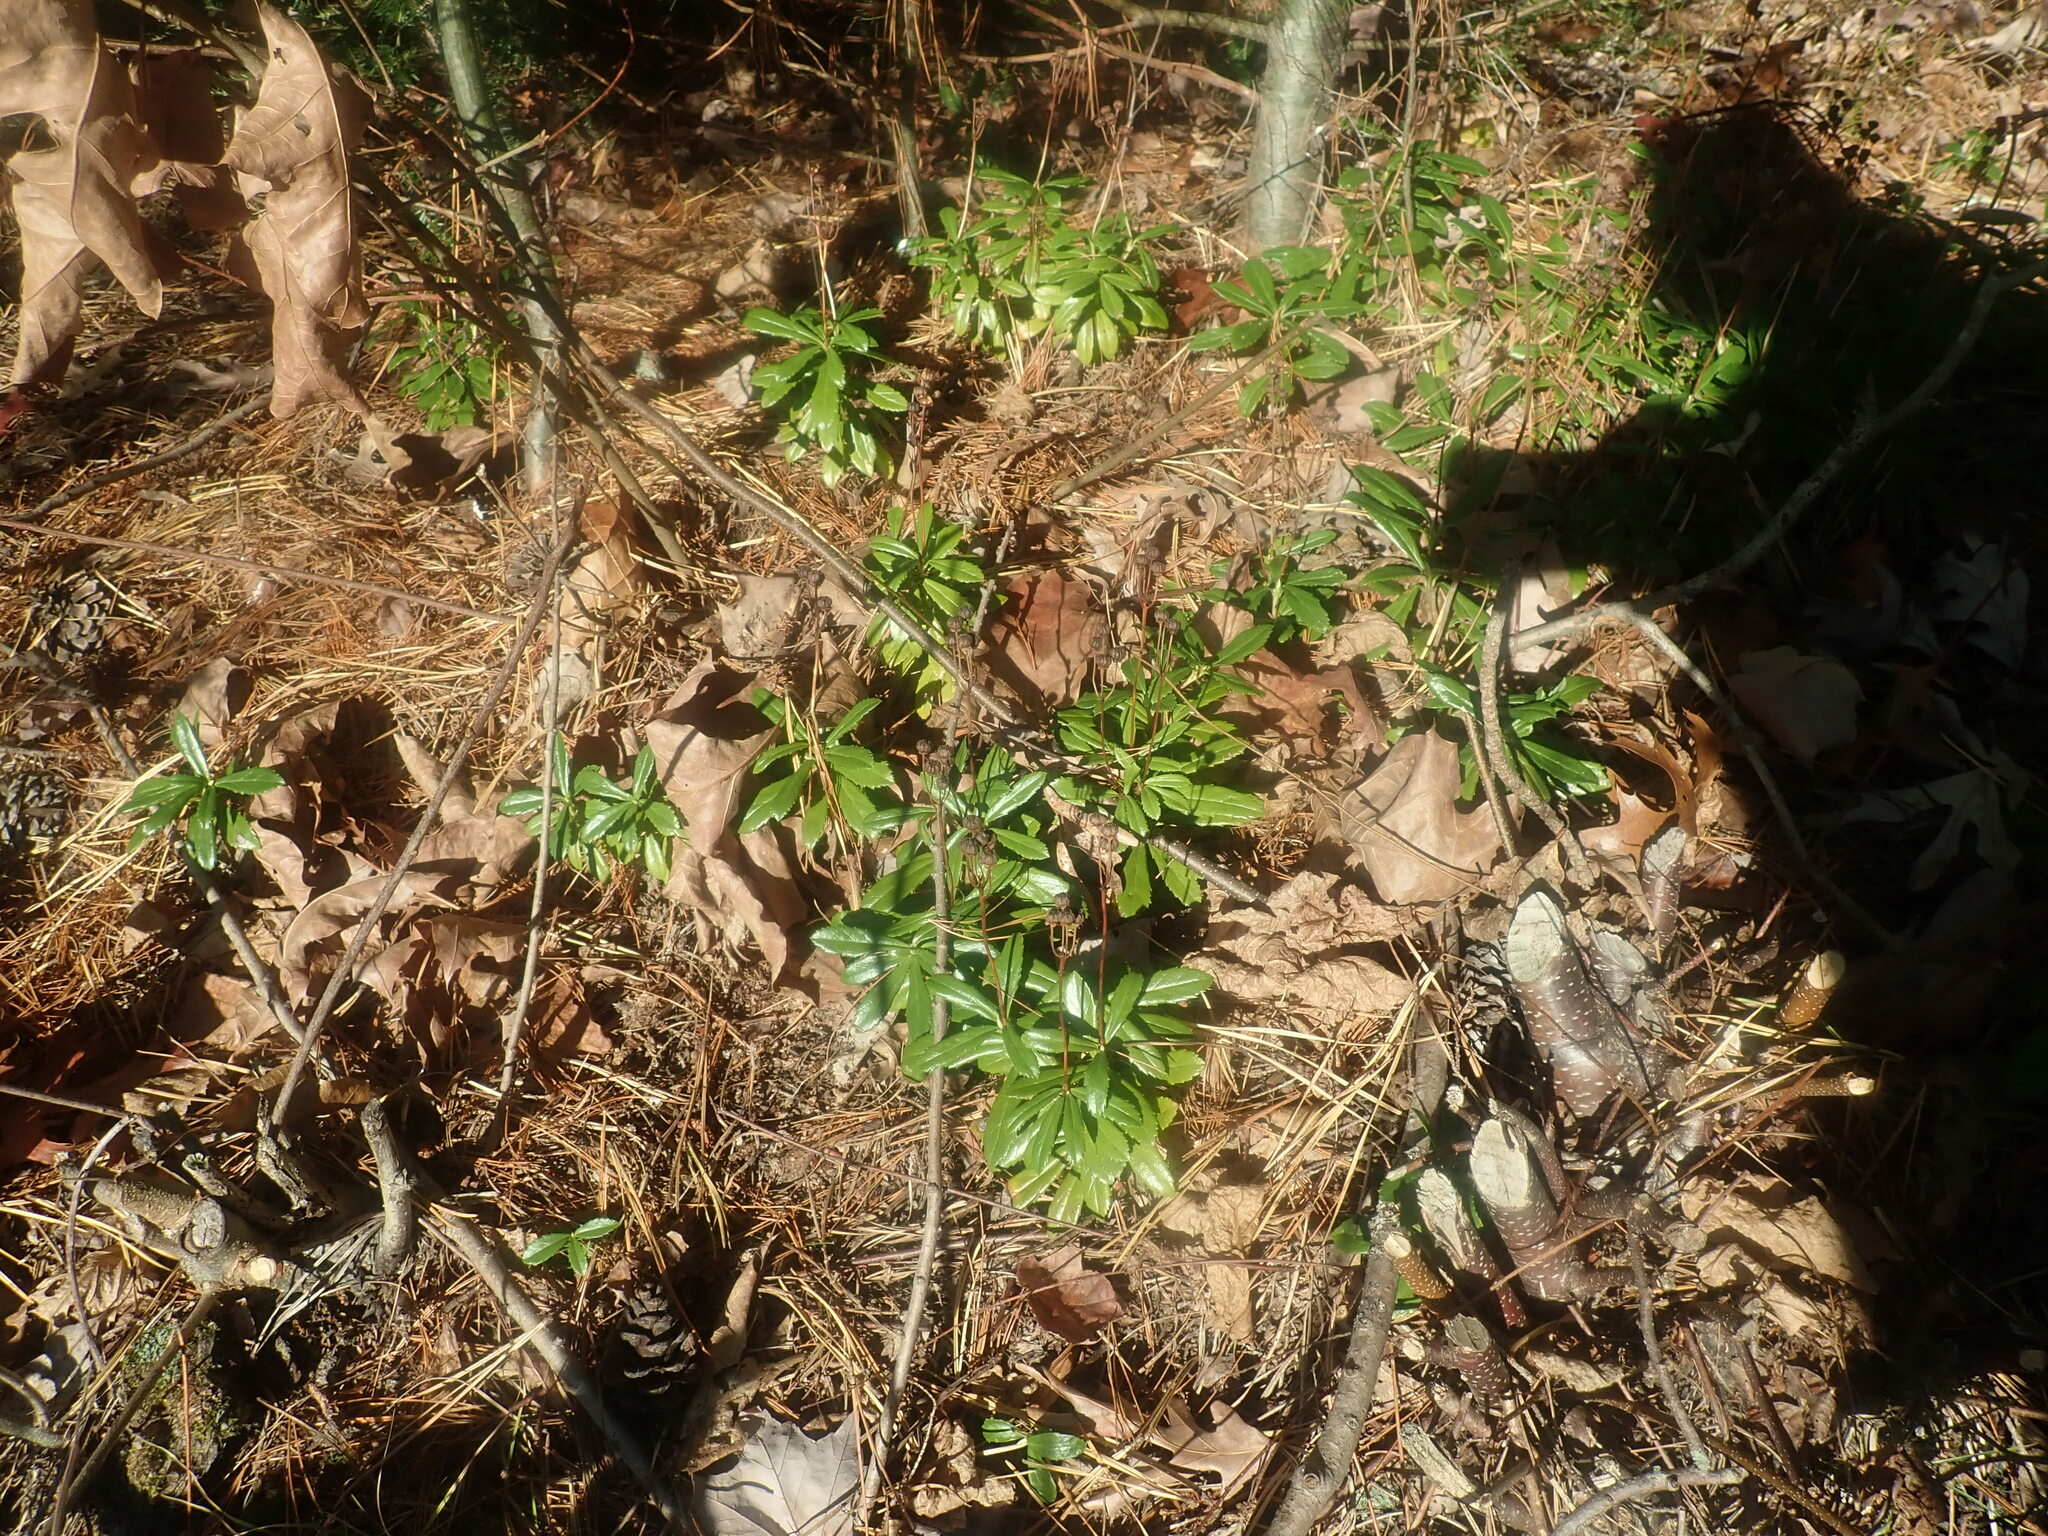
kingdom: Plantae
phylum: Tracheophyta
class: Magnoliopsida
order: Ericales
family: Ericaceae
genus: Chimaphila
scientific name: Chimaphila umbellata
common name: Pipsissewa
